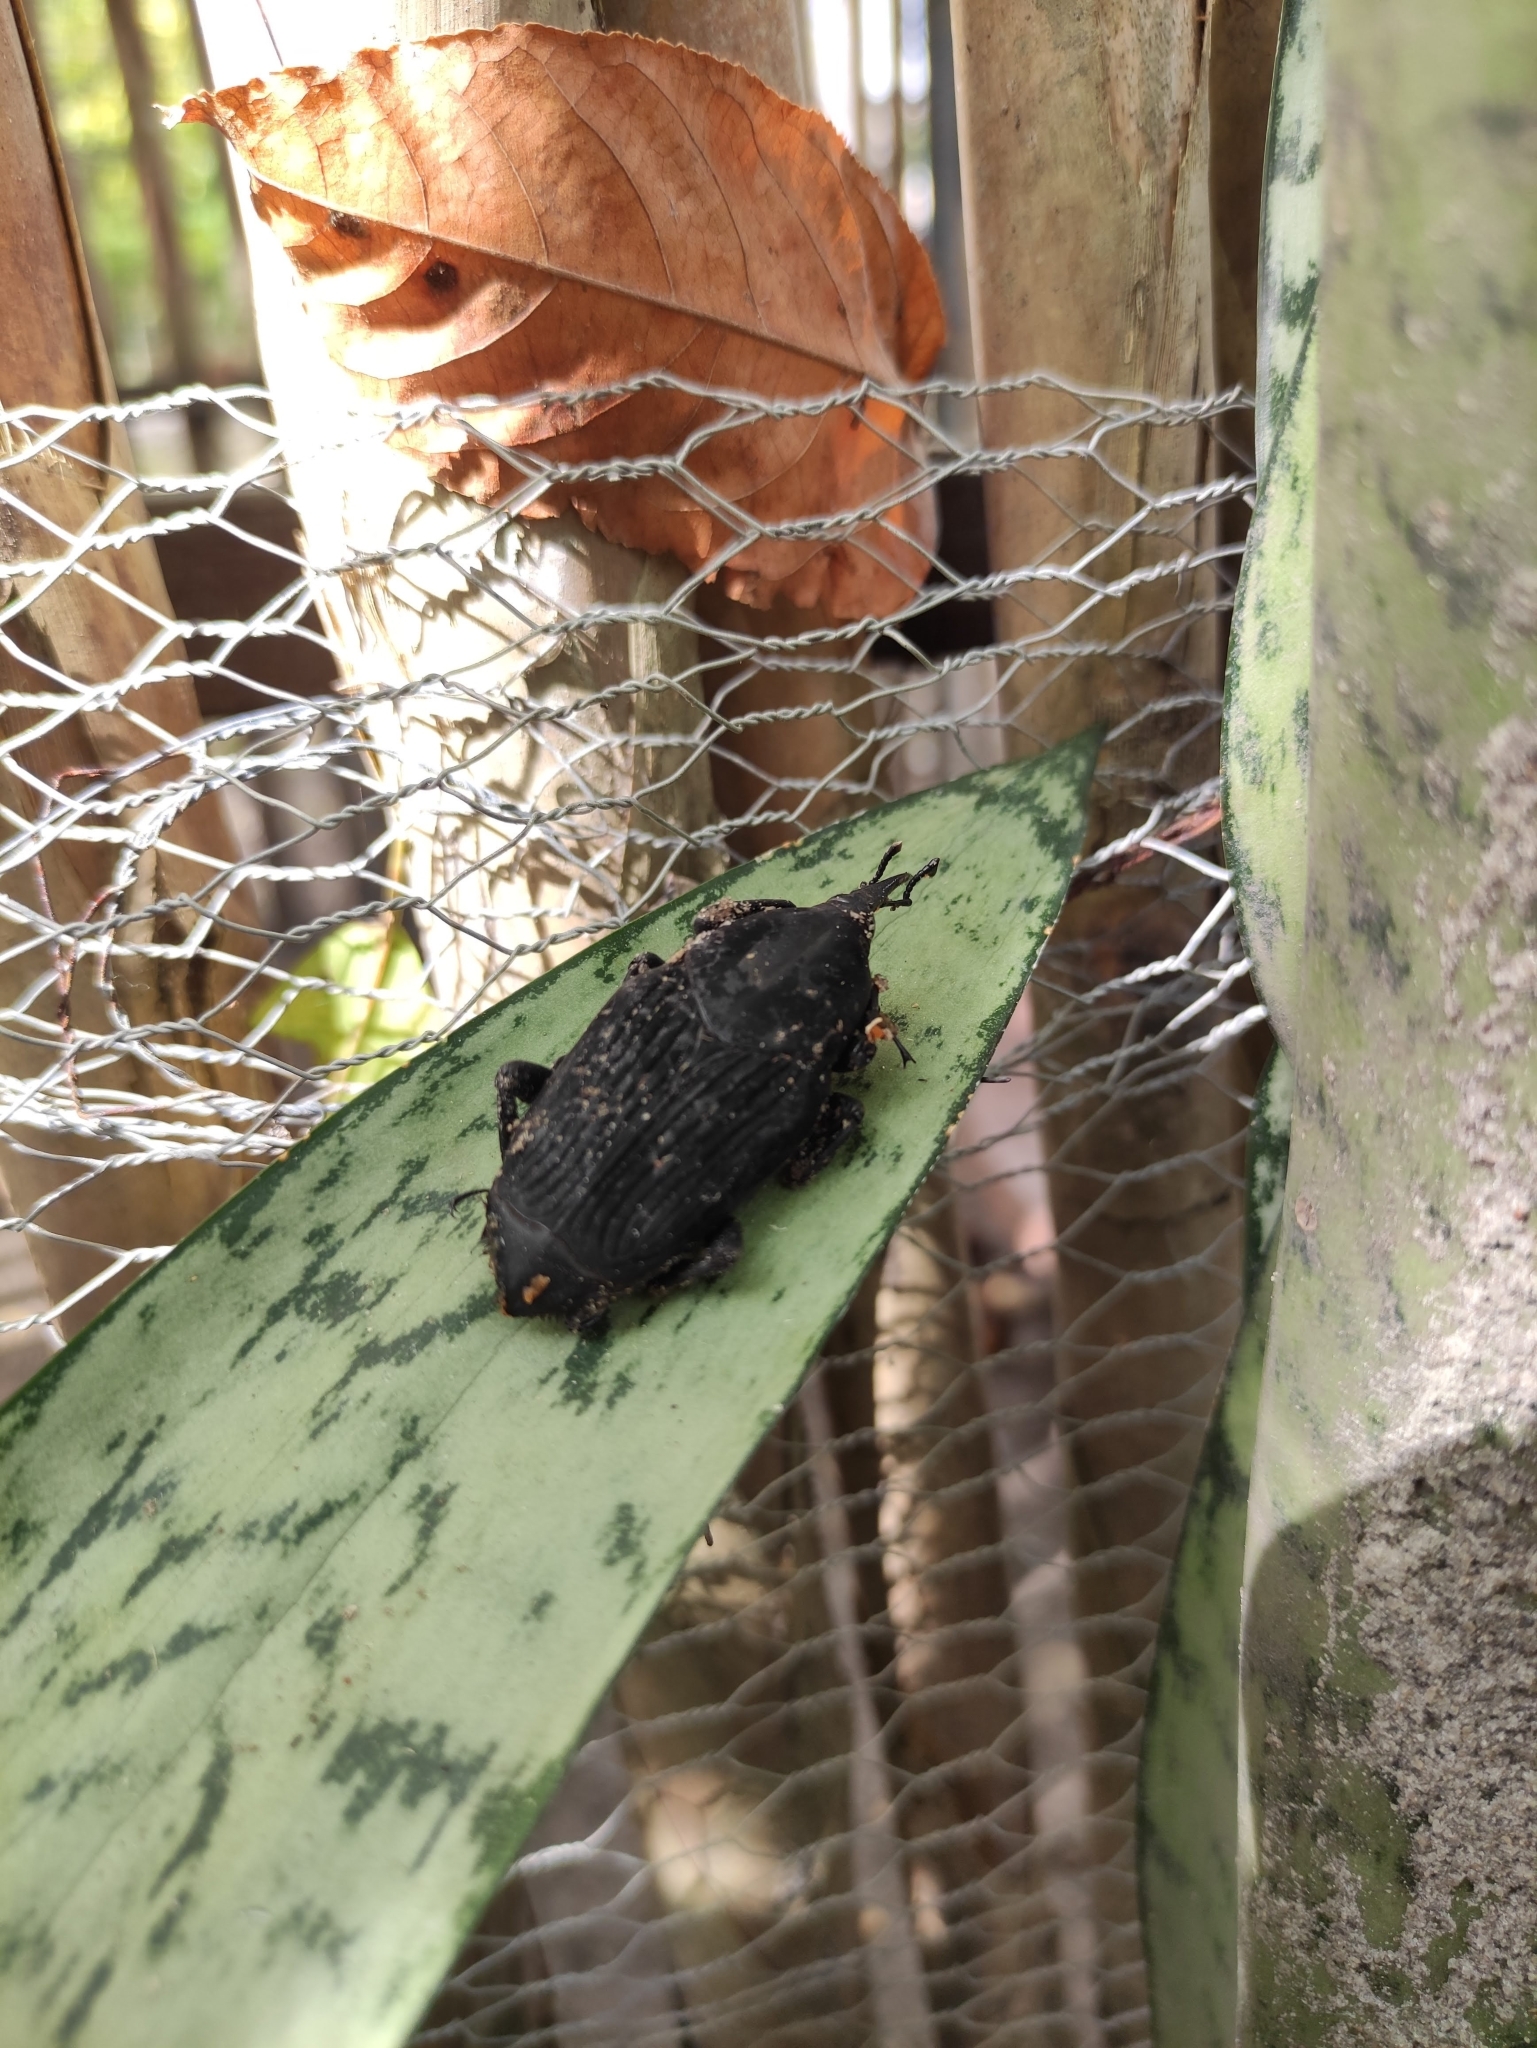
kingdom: Animalia
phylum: Arthropoda
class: Insecta
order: Coleoptera
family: Dryophthoridae
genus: Rhynchophorus
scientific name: Rhynchophorus palmarum
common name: Palm weevil
